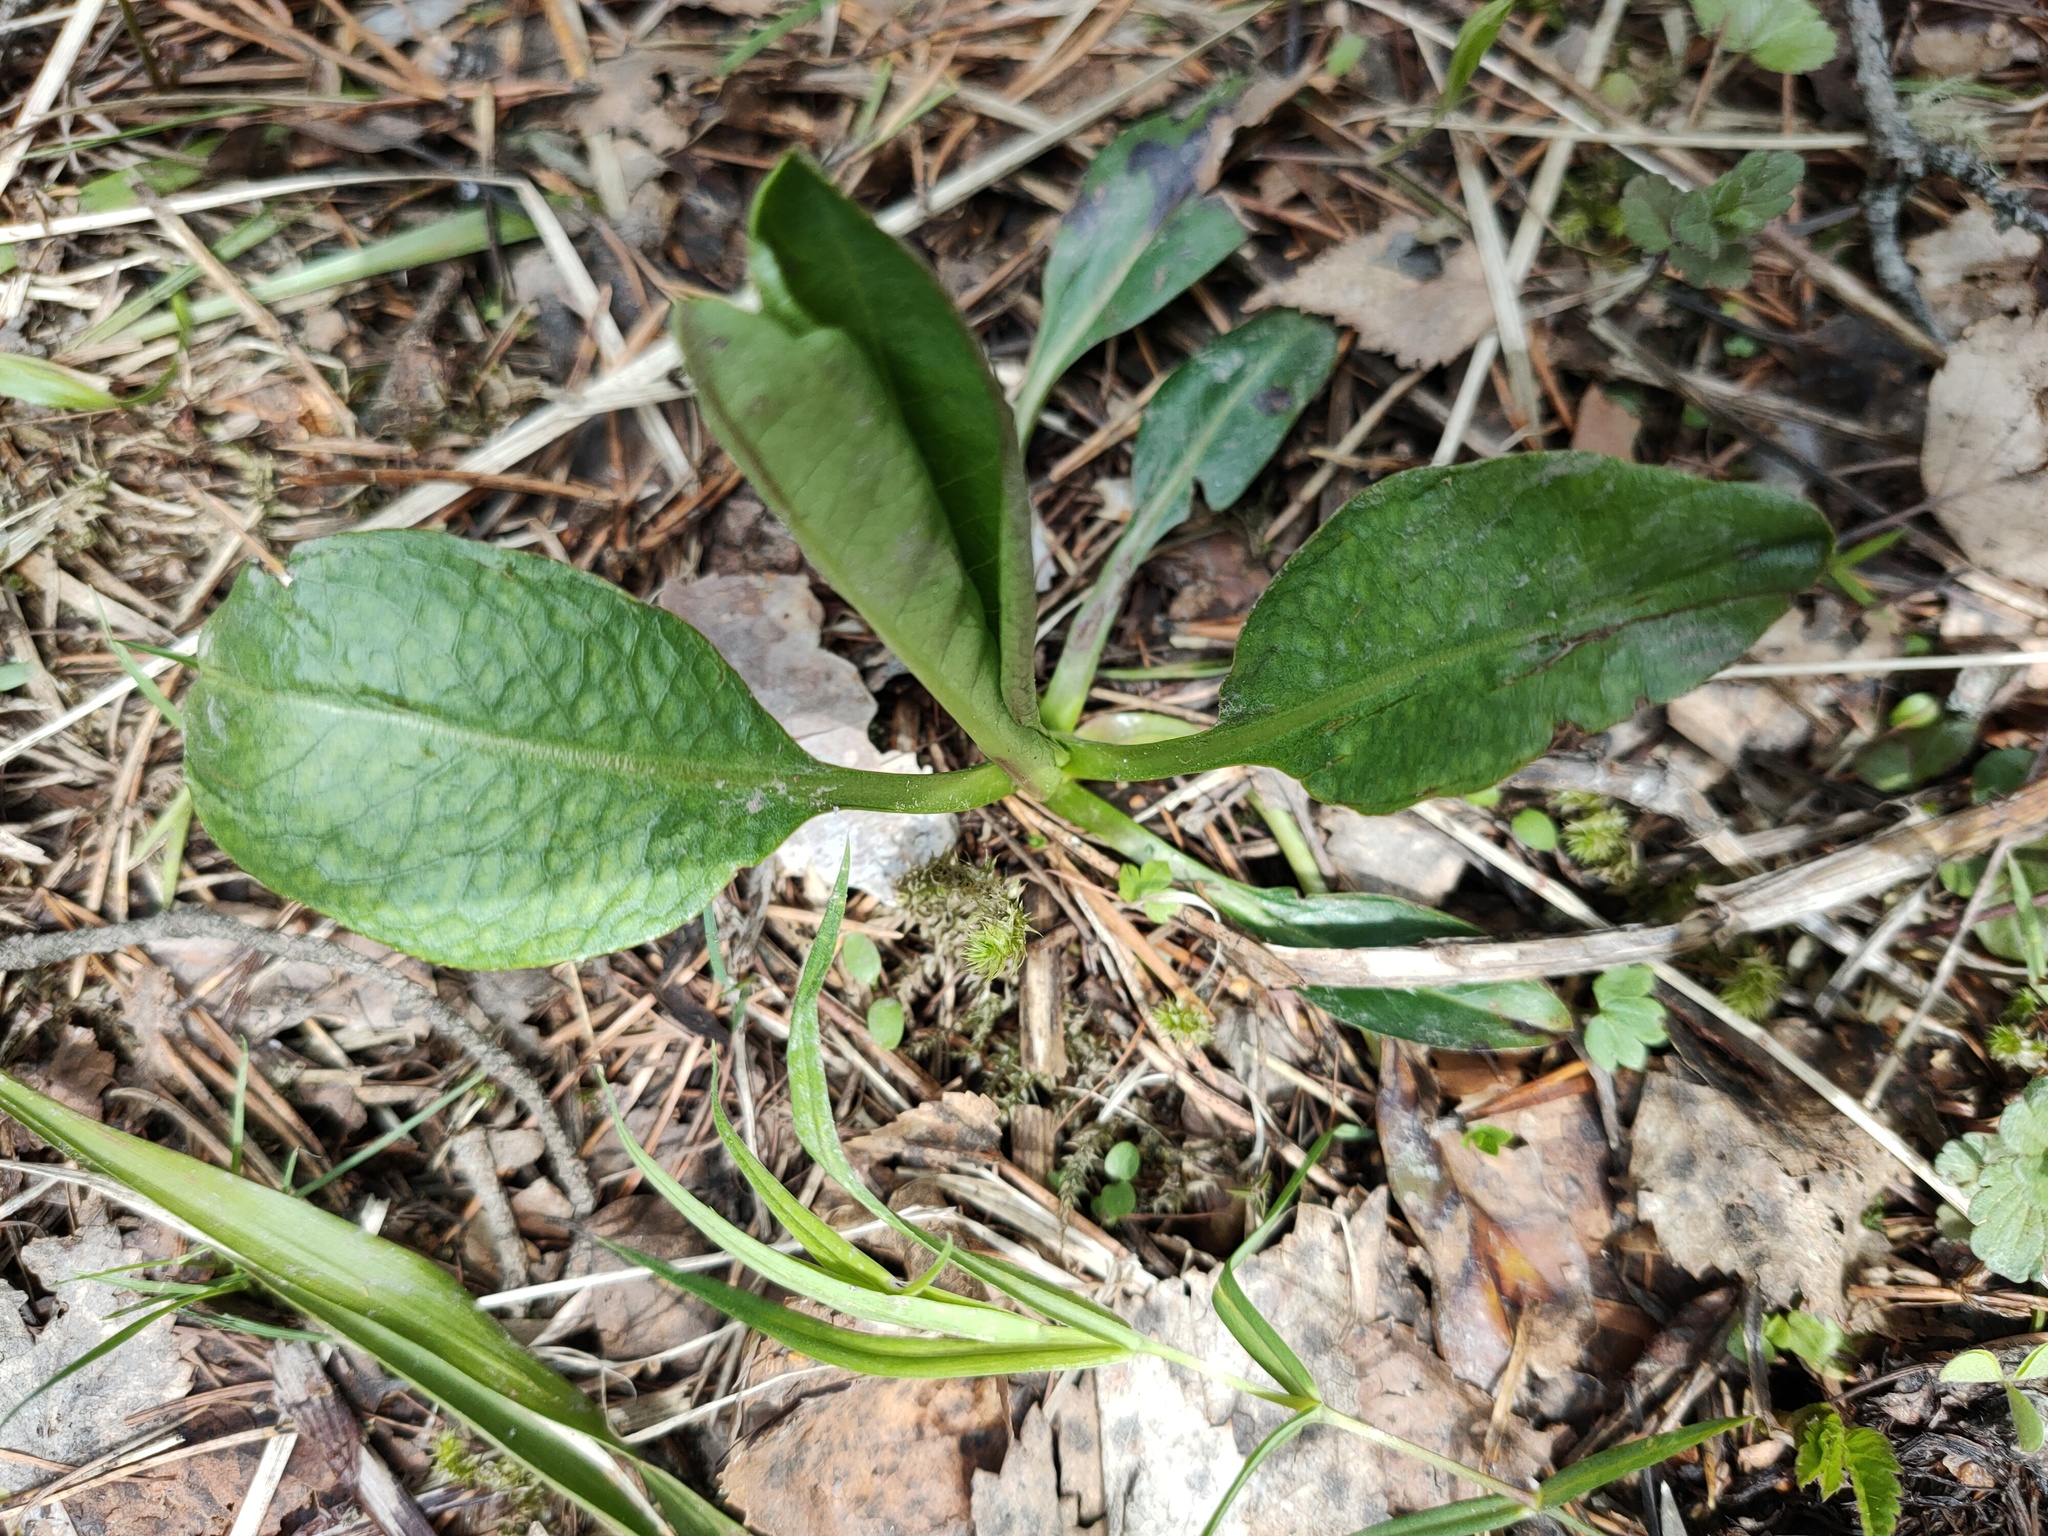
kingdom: Plantae
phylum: Tracheophyta
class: Magnoliopsida
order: Dipsacales
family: Caprifoliaceae
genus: Succisa
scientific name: Succisa pratensis
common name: Devil's-bit
